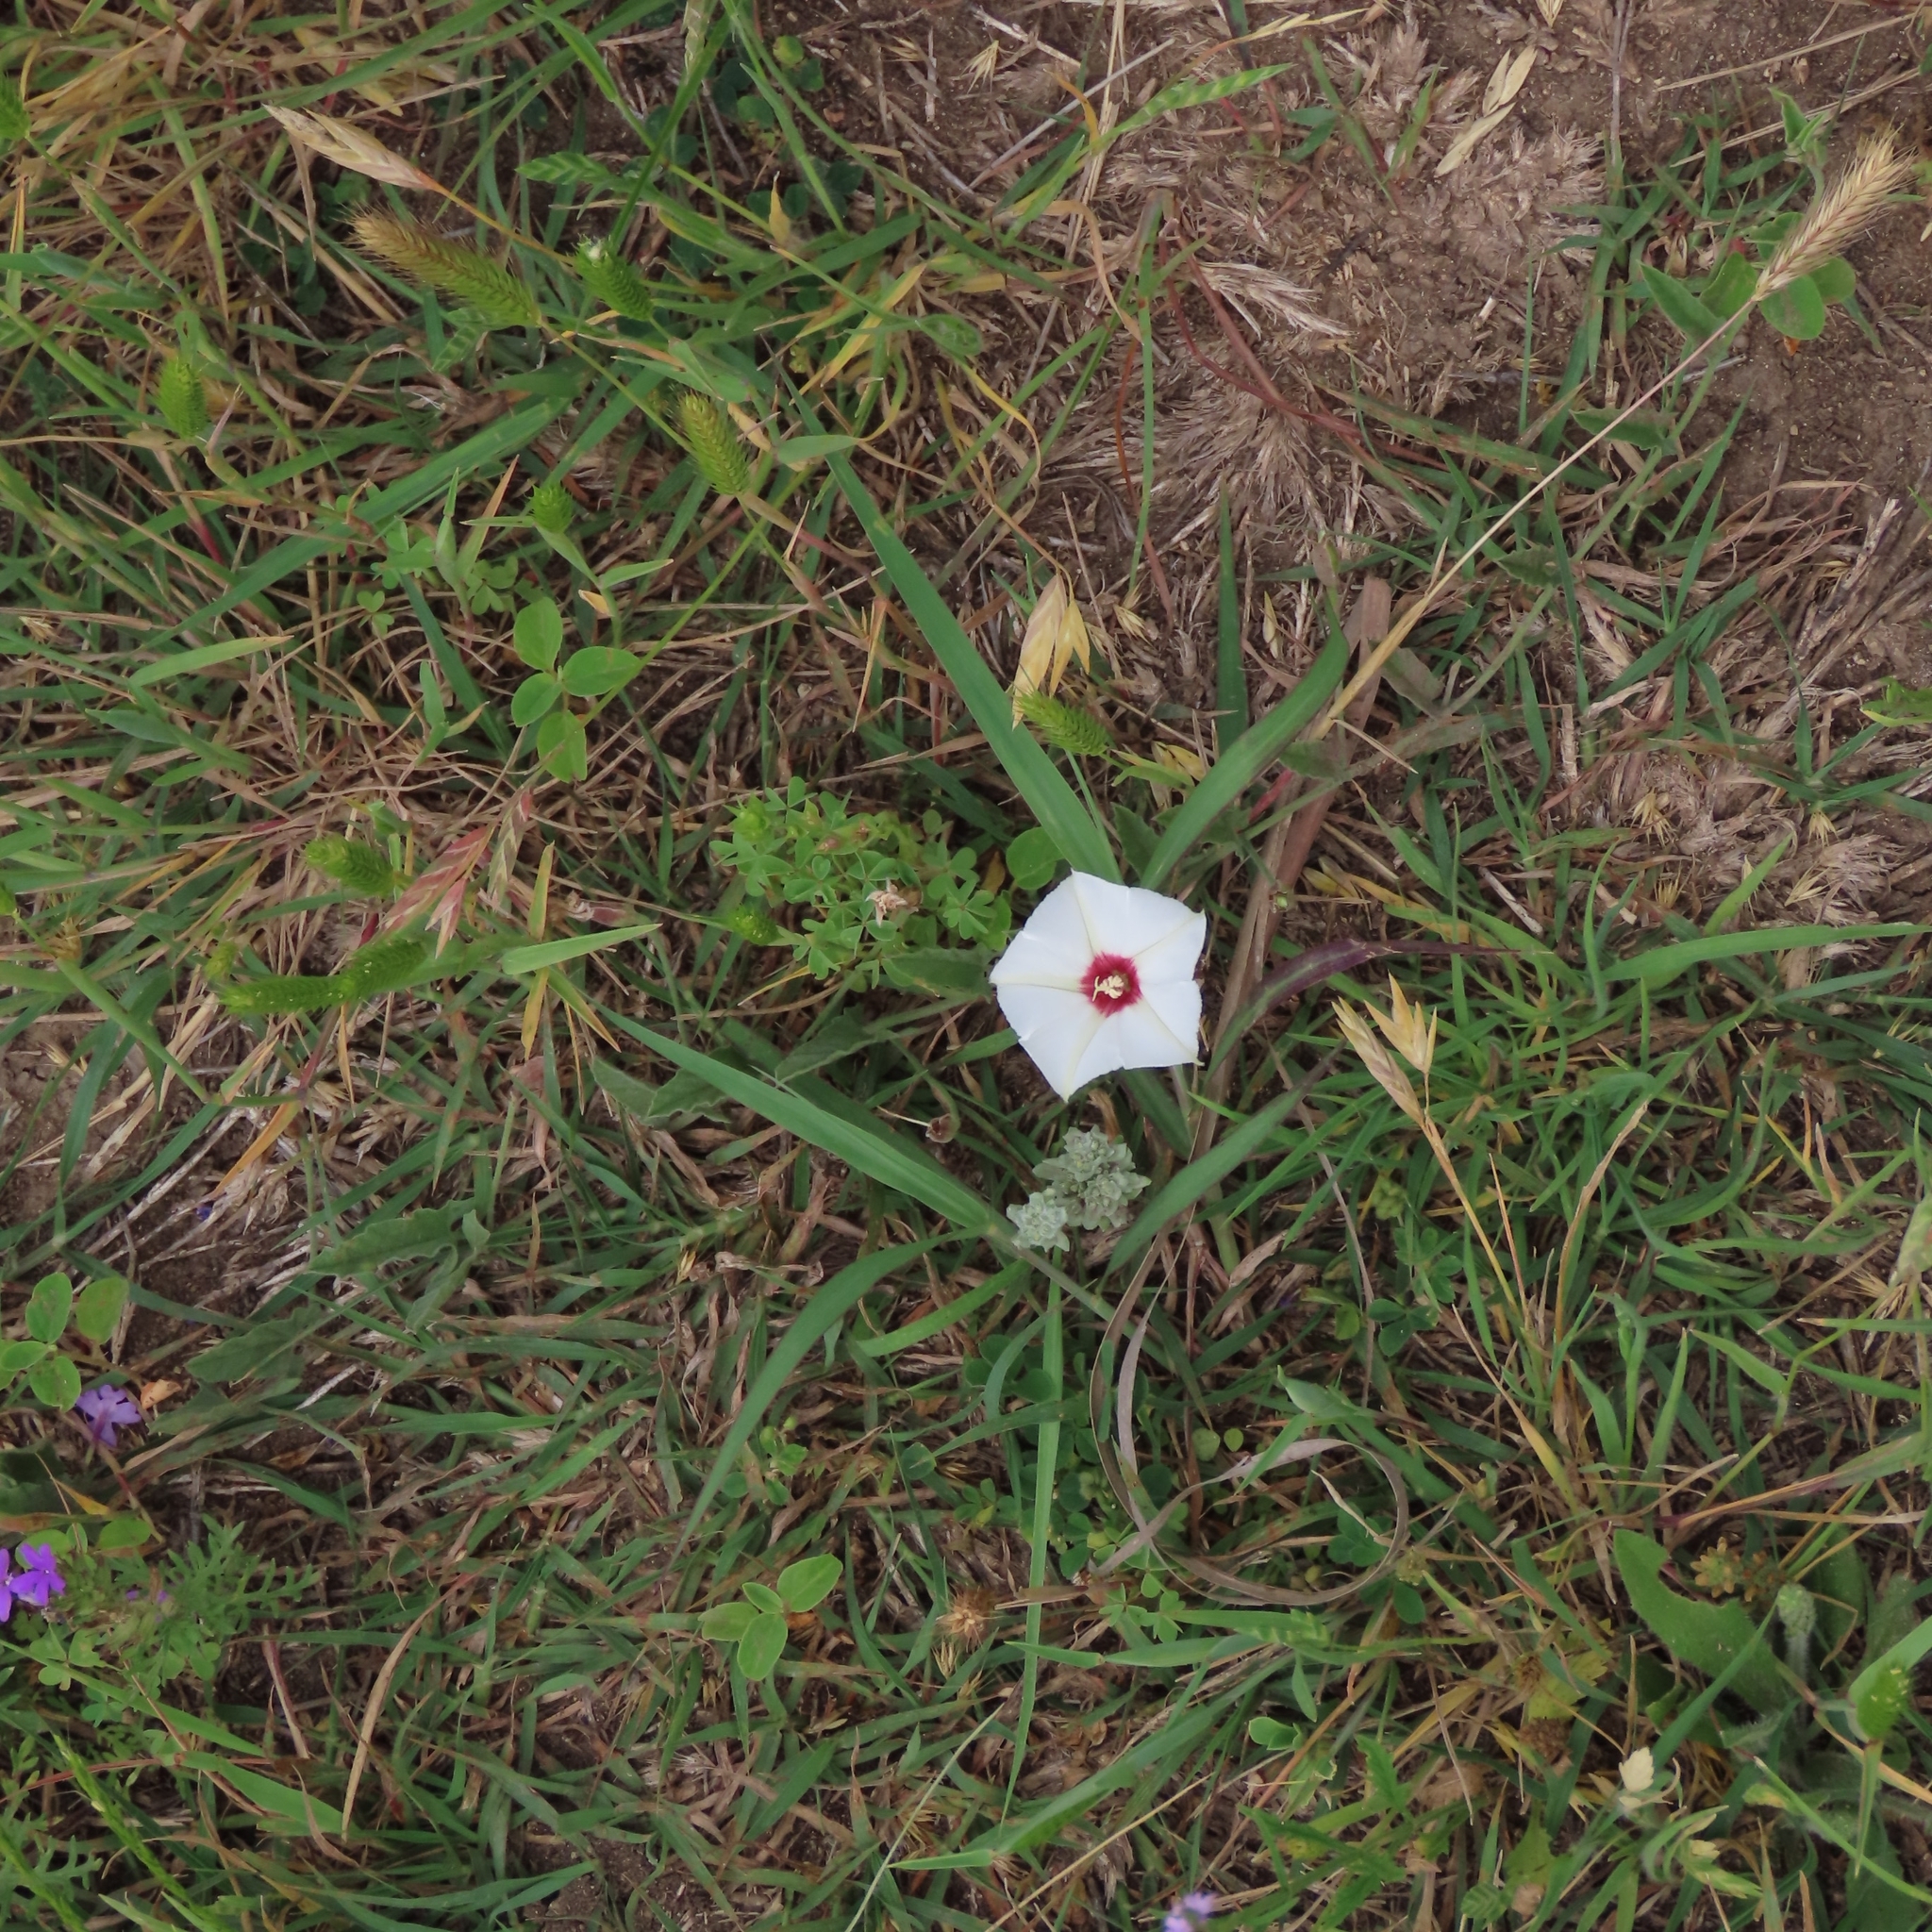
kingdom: Plantae
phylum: Tracheophyta
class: Magnoliopsida
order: Solanales
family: Convolvulaceae
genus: Convolvulus
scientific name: Convolvulus equitans
